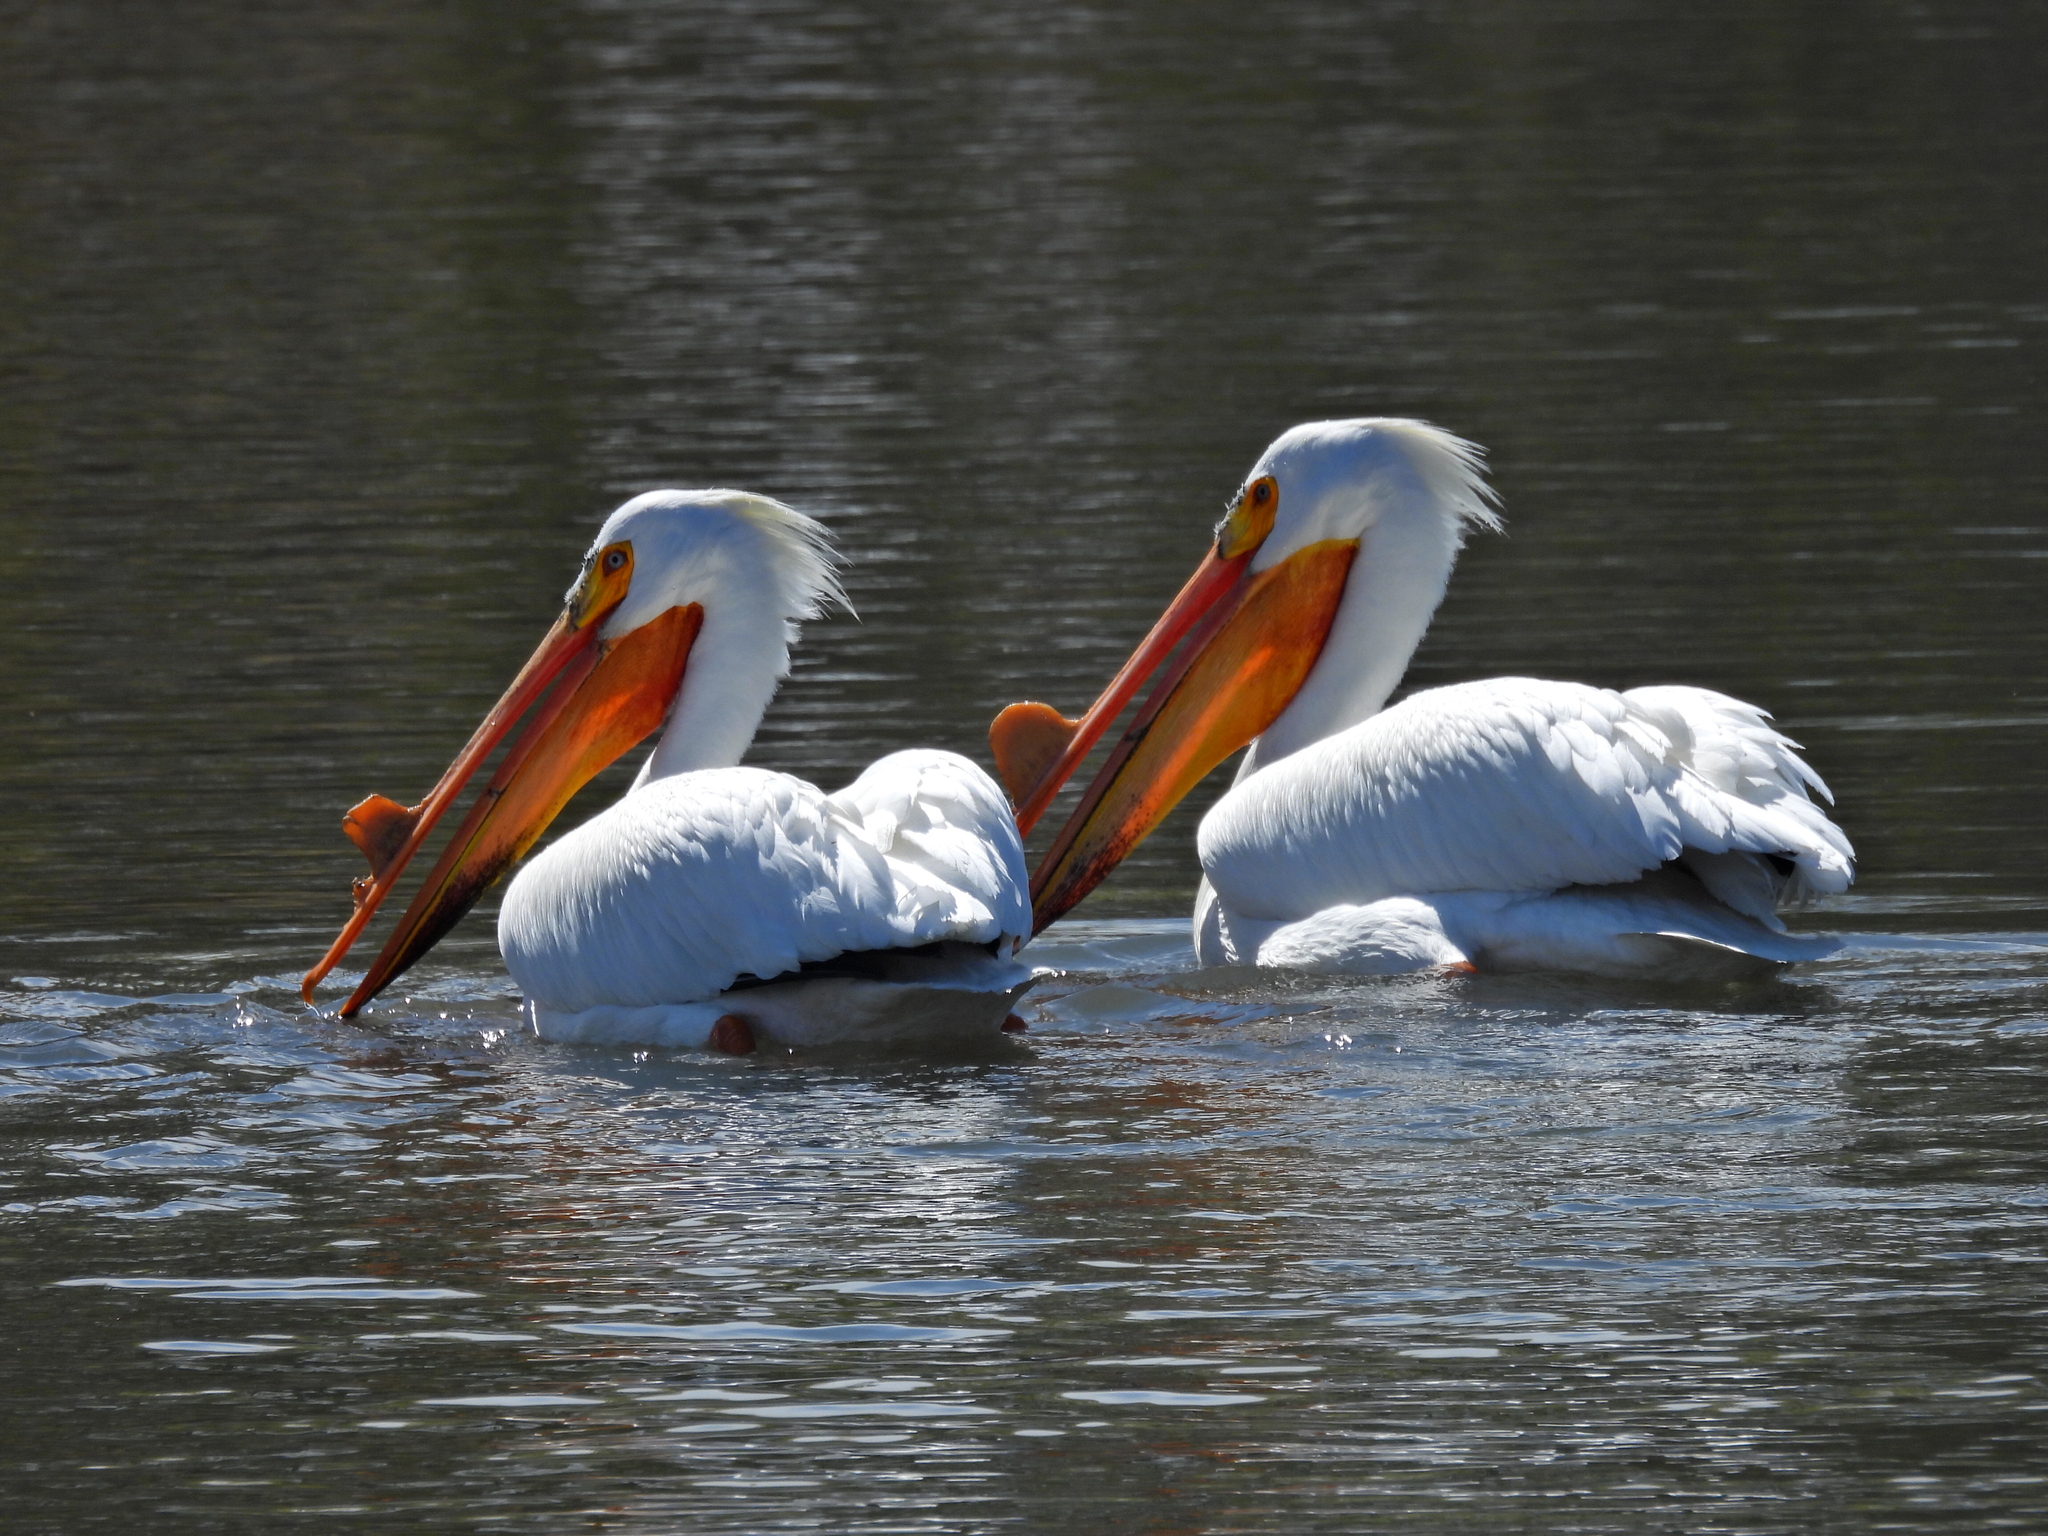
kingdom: Animalia
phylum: Chordata
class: Aves
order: Pelecaniformes
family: Pelecanidae
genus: Pelecanus
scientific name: Pelecanus erythrorhynchos
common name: American white pelican
